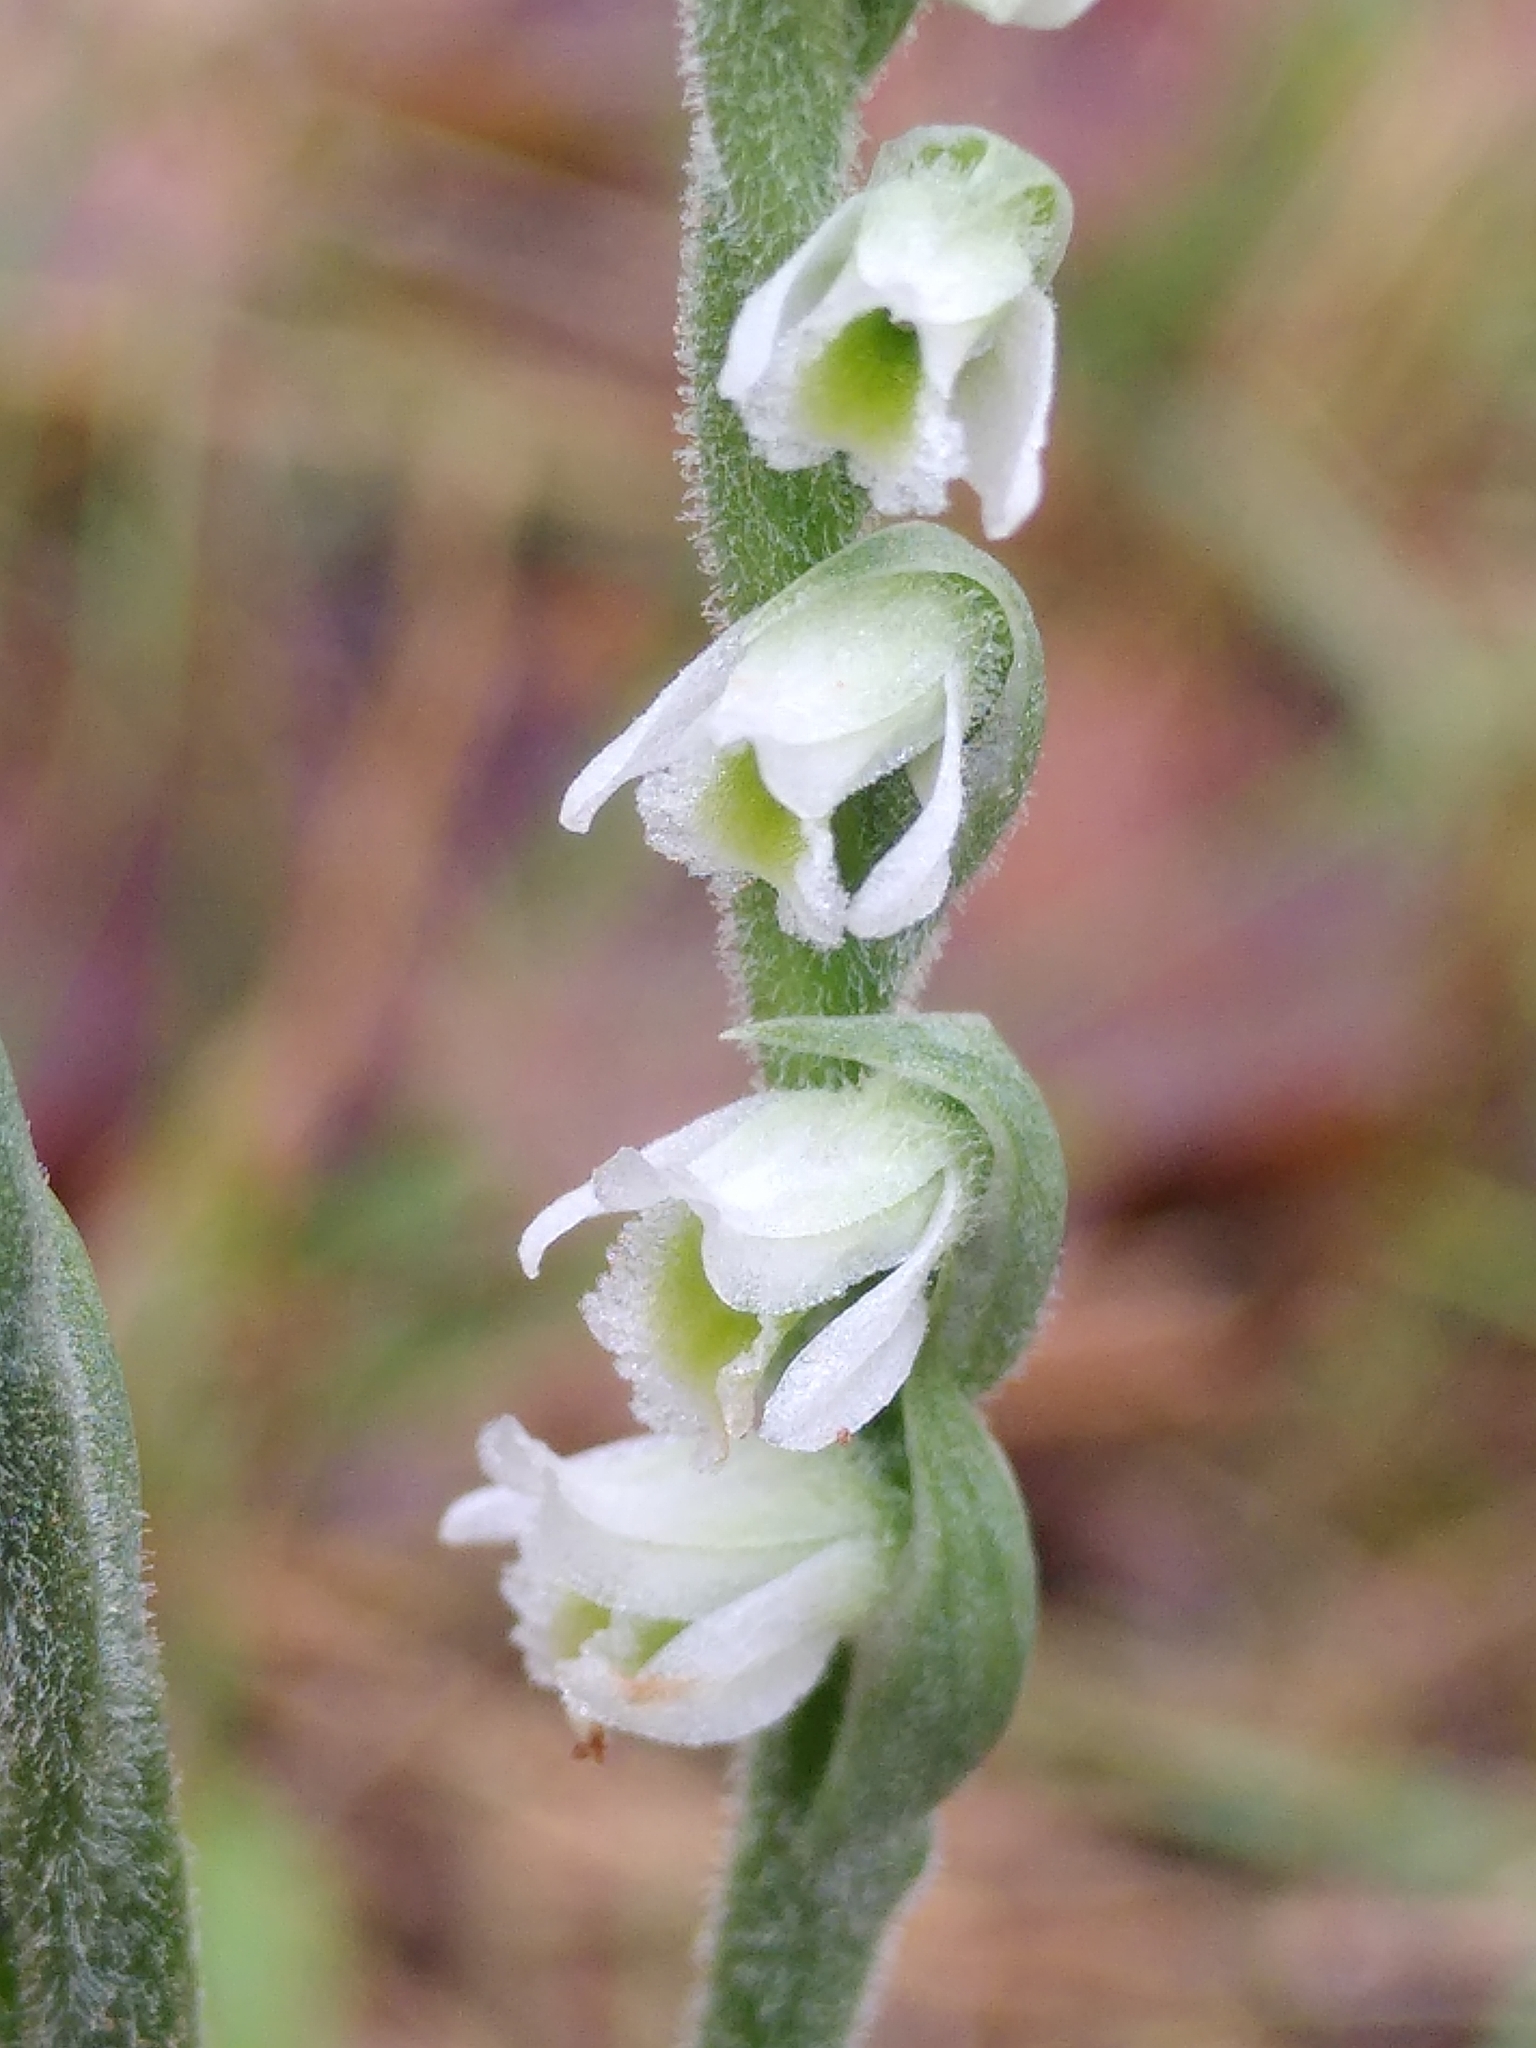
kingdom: Plantae
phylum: Tracheophyta
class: Liliopsida
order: Asparagales
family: Orchidaceae
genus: Spiranthes
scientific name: Spiranthes spiralis
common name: Autumn lady's-tresses
